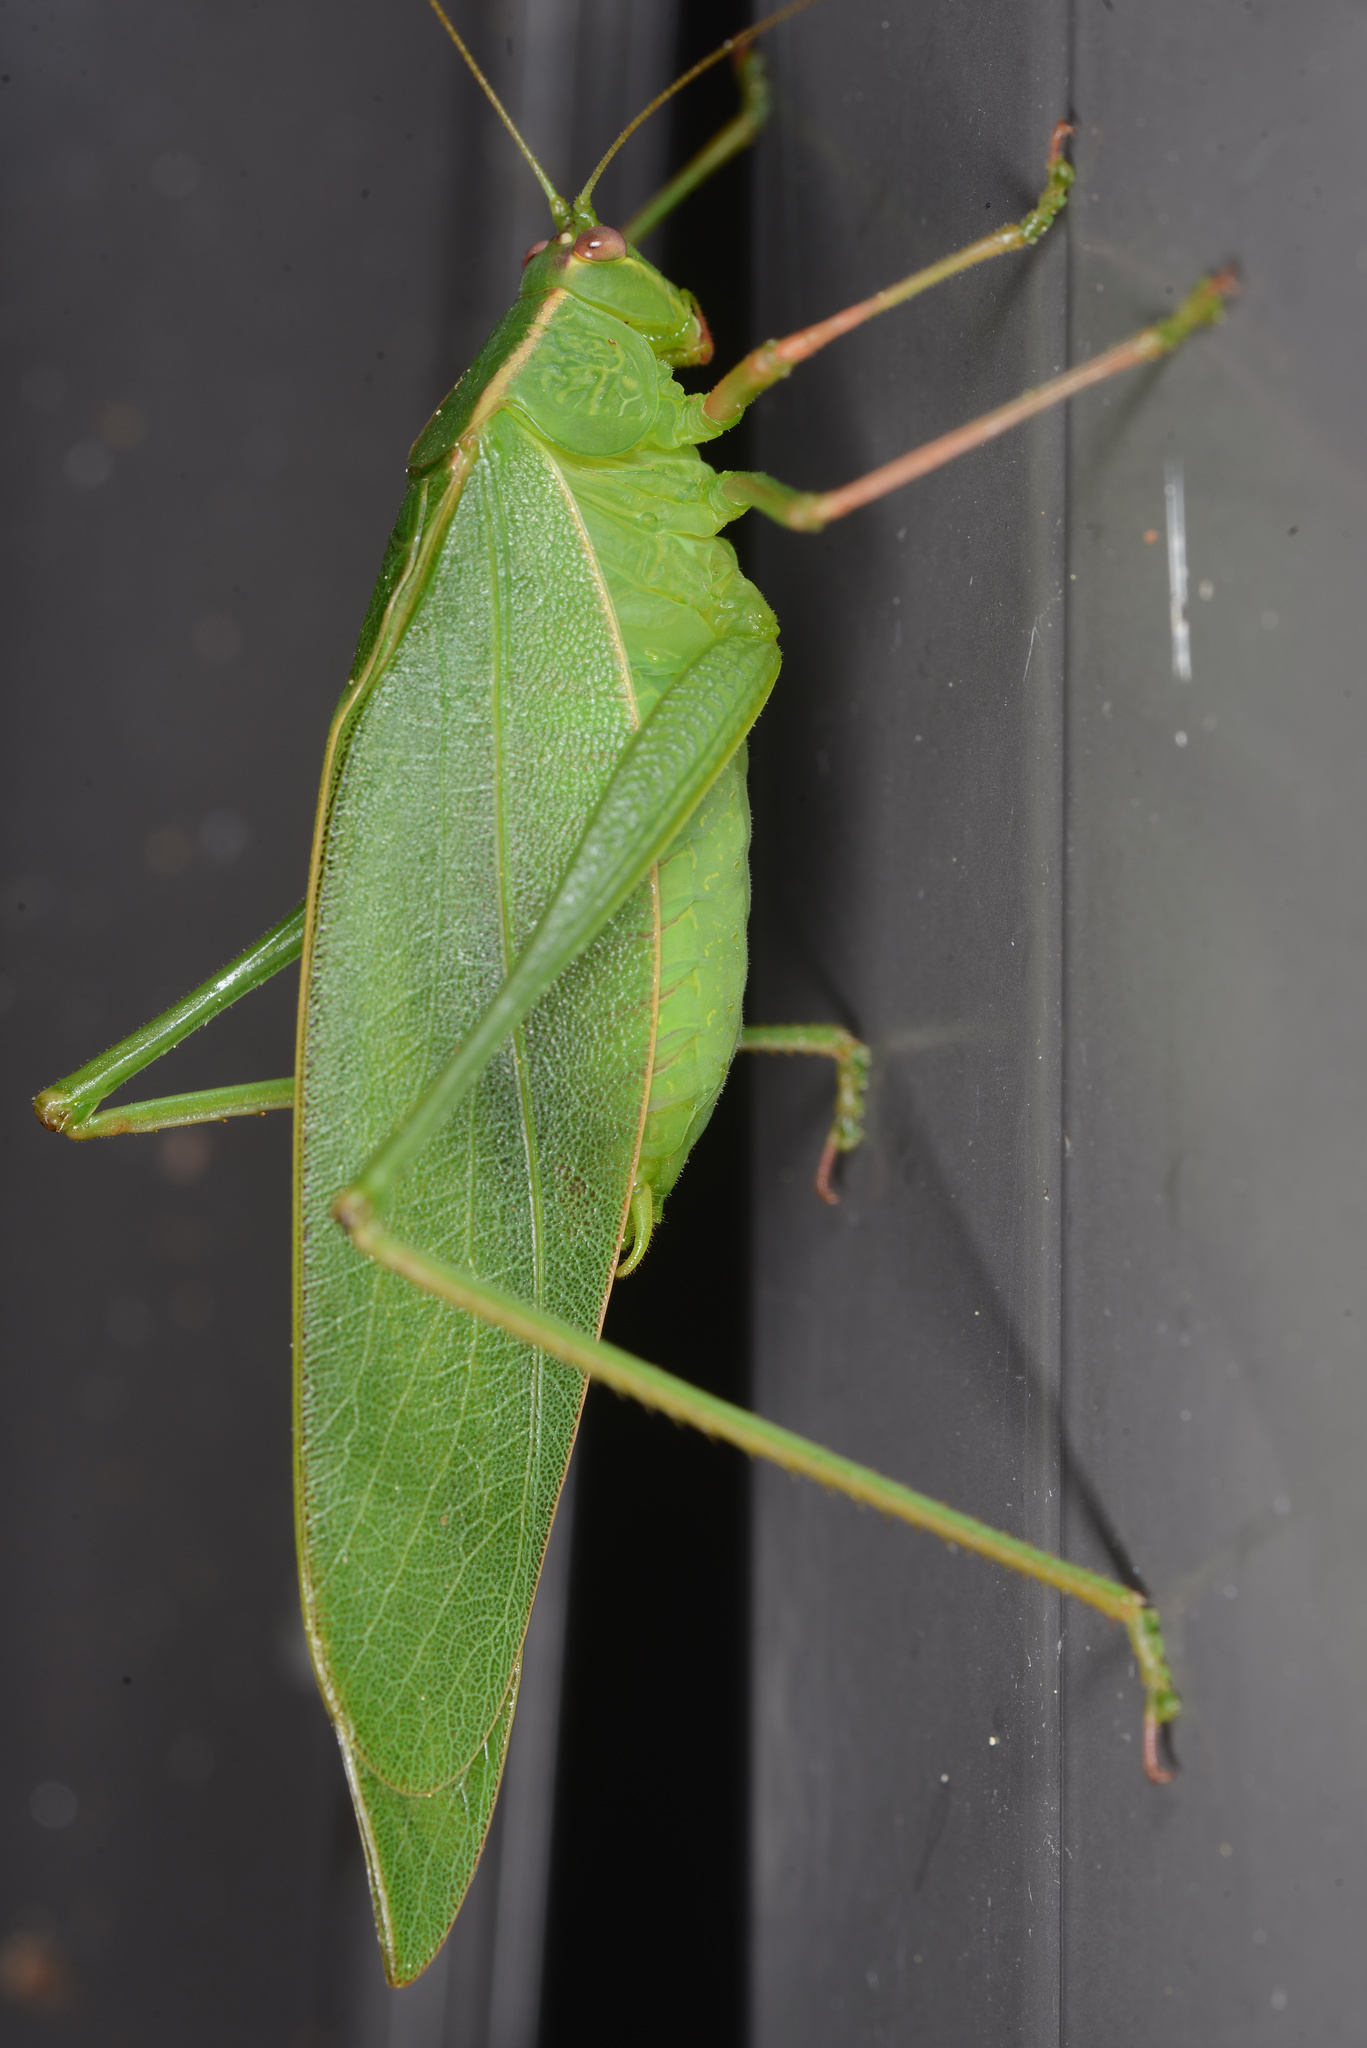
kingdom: Animalia
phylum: Arthropoda
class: Insecta
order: Orthoptera
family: Tettigoniidae
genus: Caedicia
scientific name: Caedicia simplex
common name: Common garden katydid
